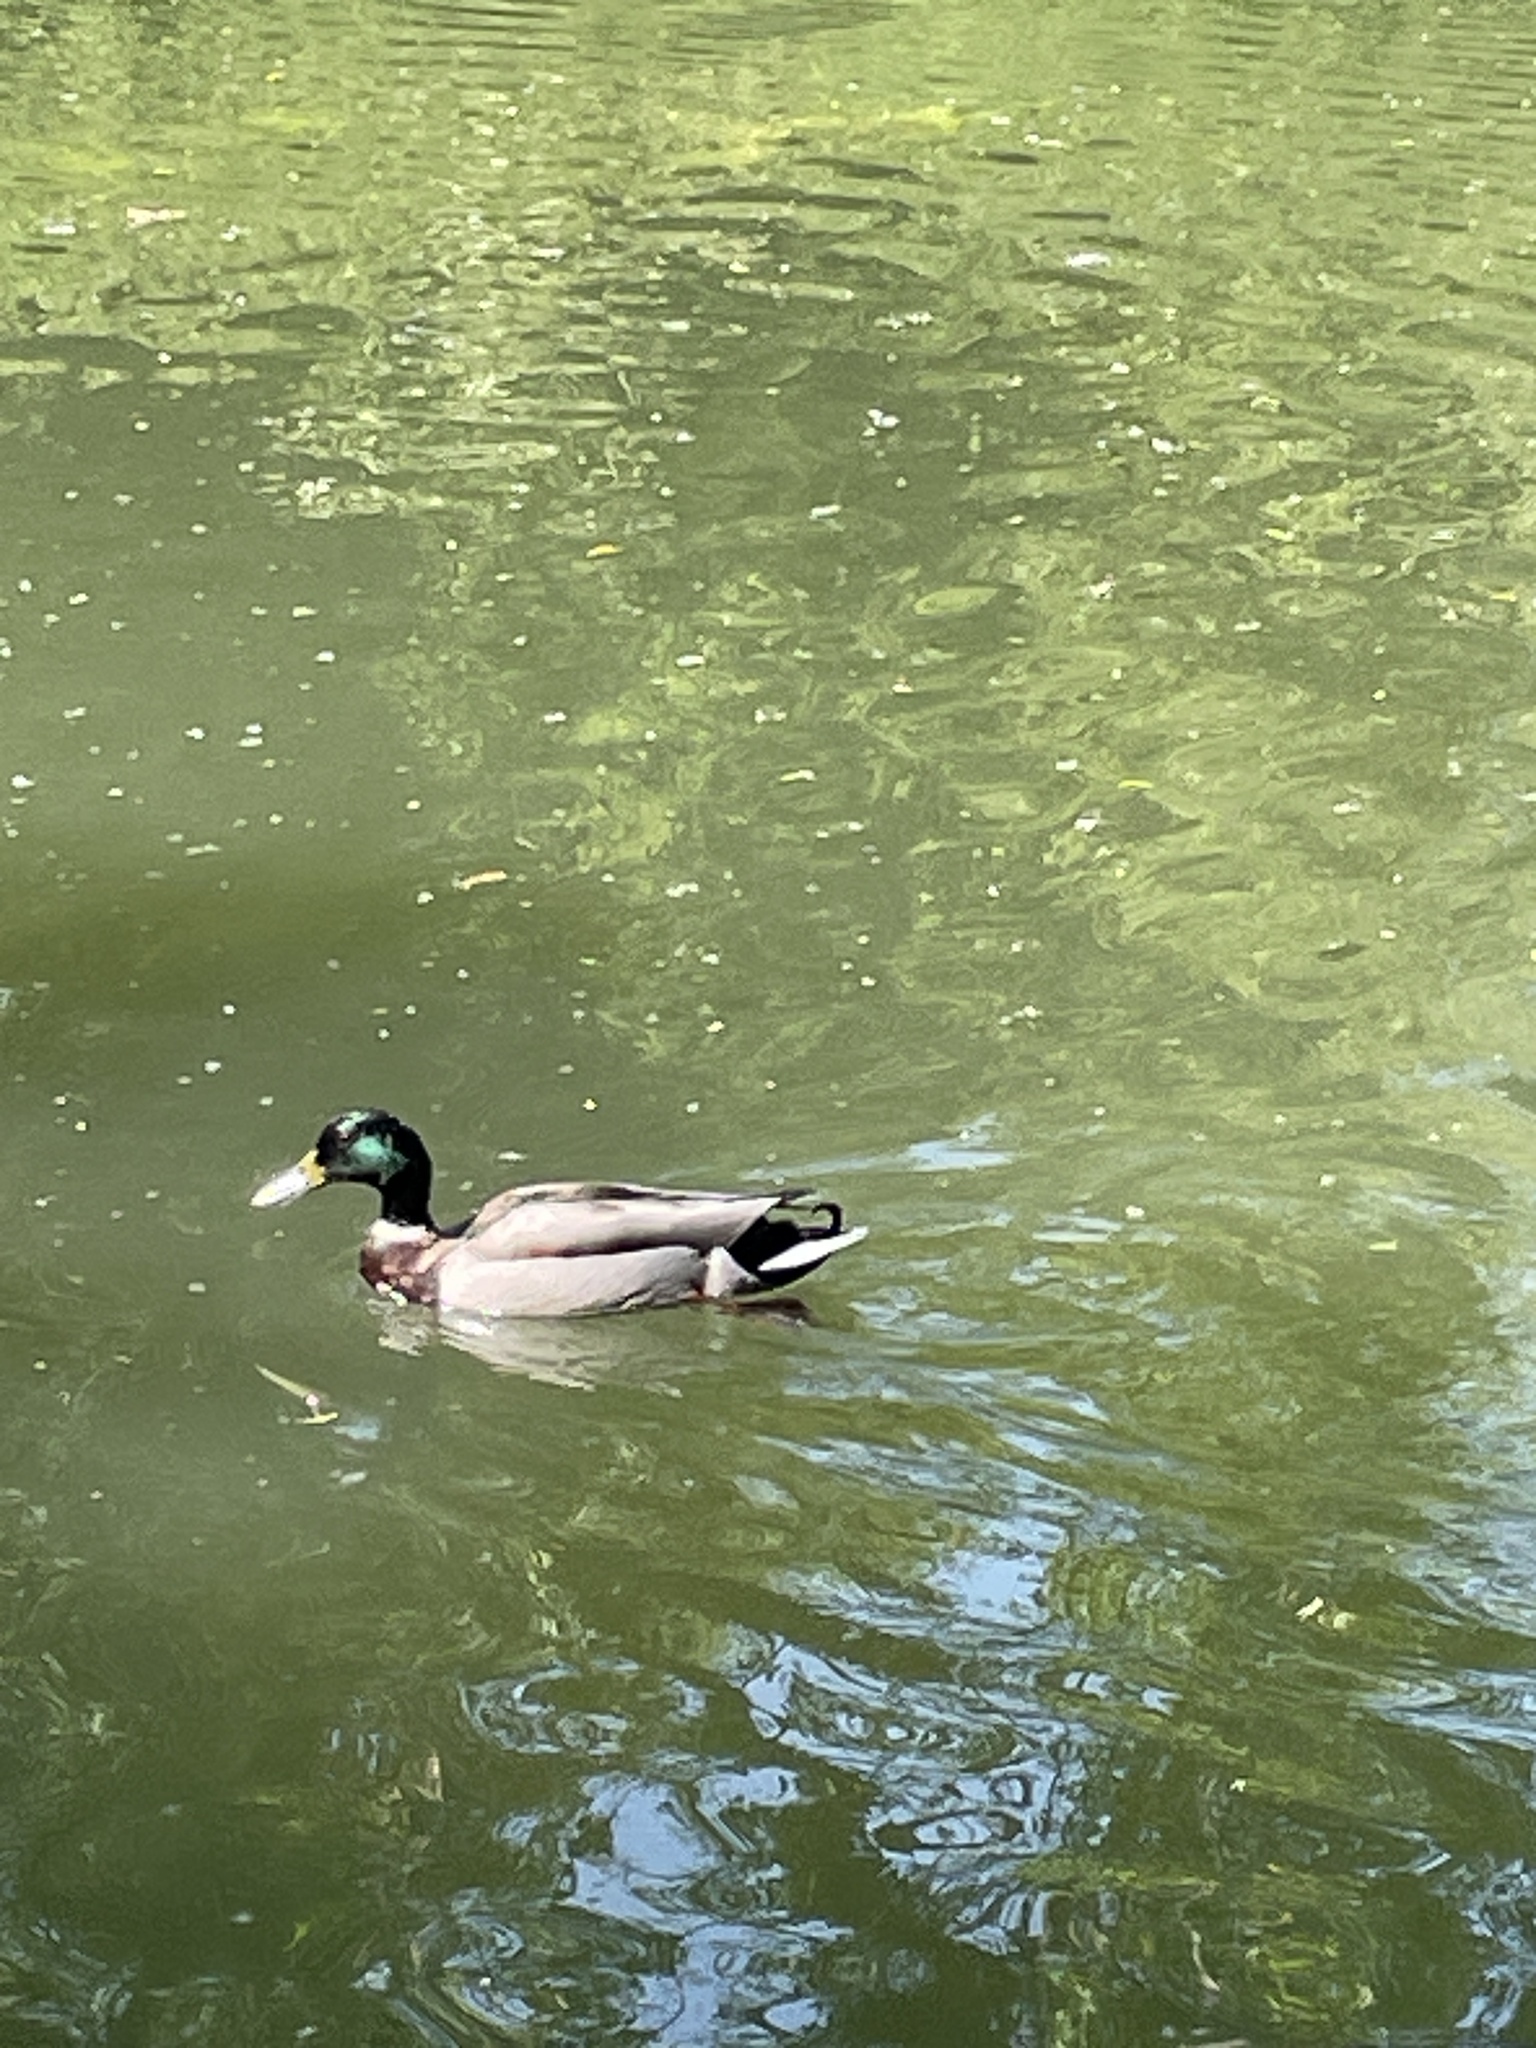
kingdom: Animalia
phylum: Chordata
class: Aves
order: Anseriformes
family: Anatidae
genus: Anas
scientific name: Anas platyrhynchos
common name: Mallard
